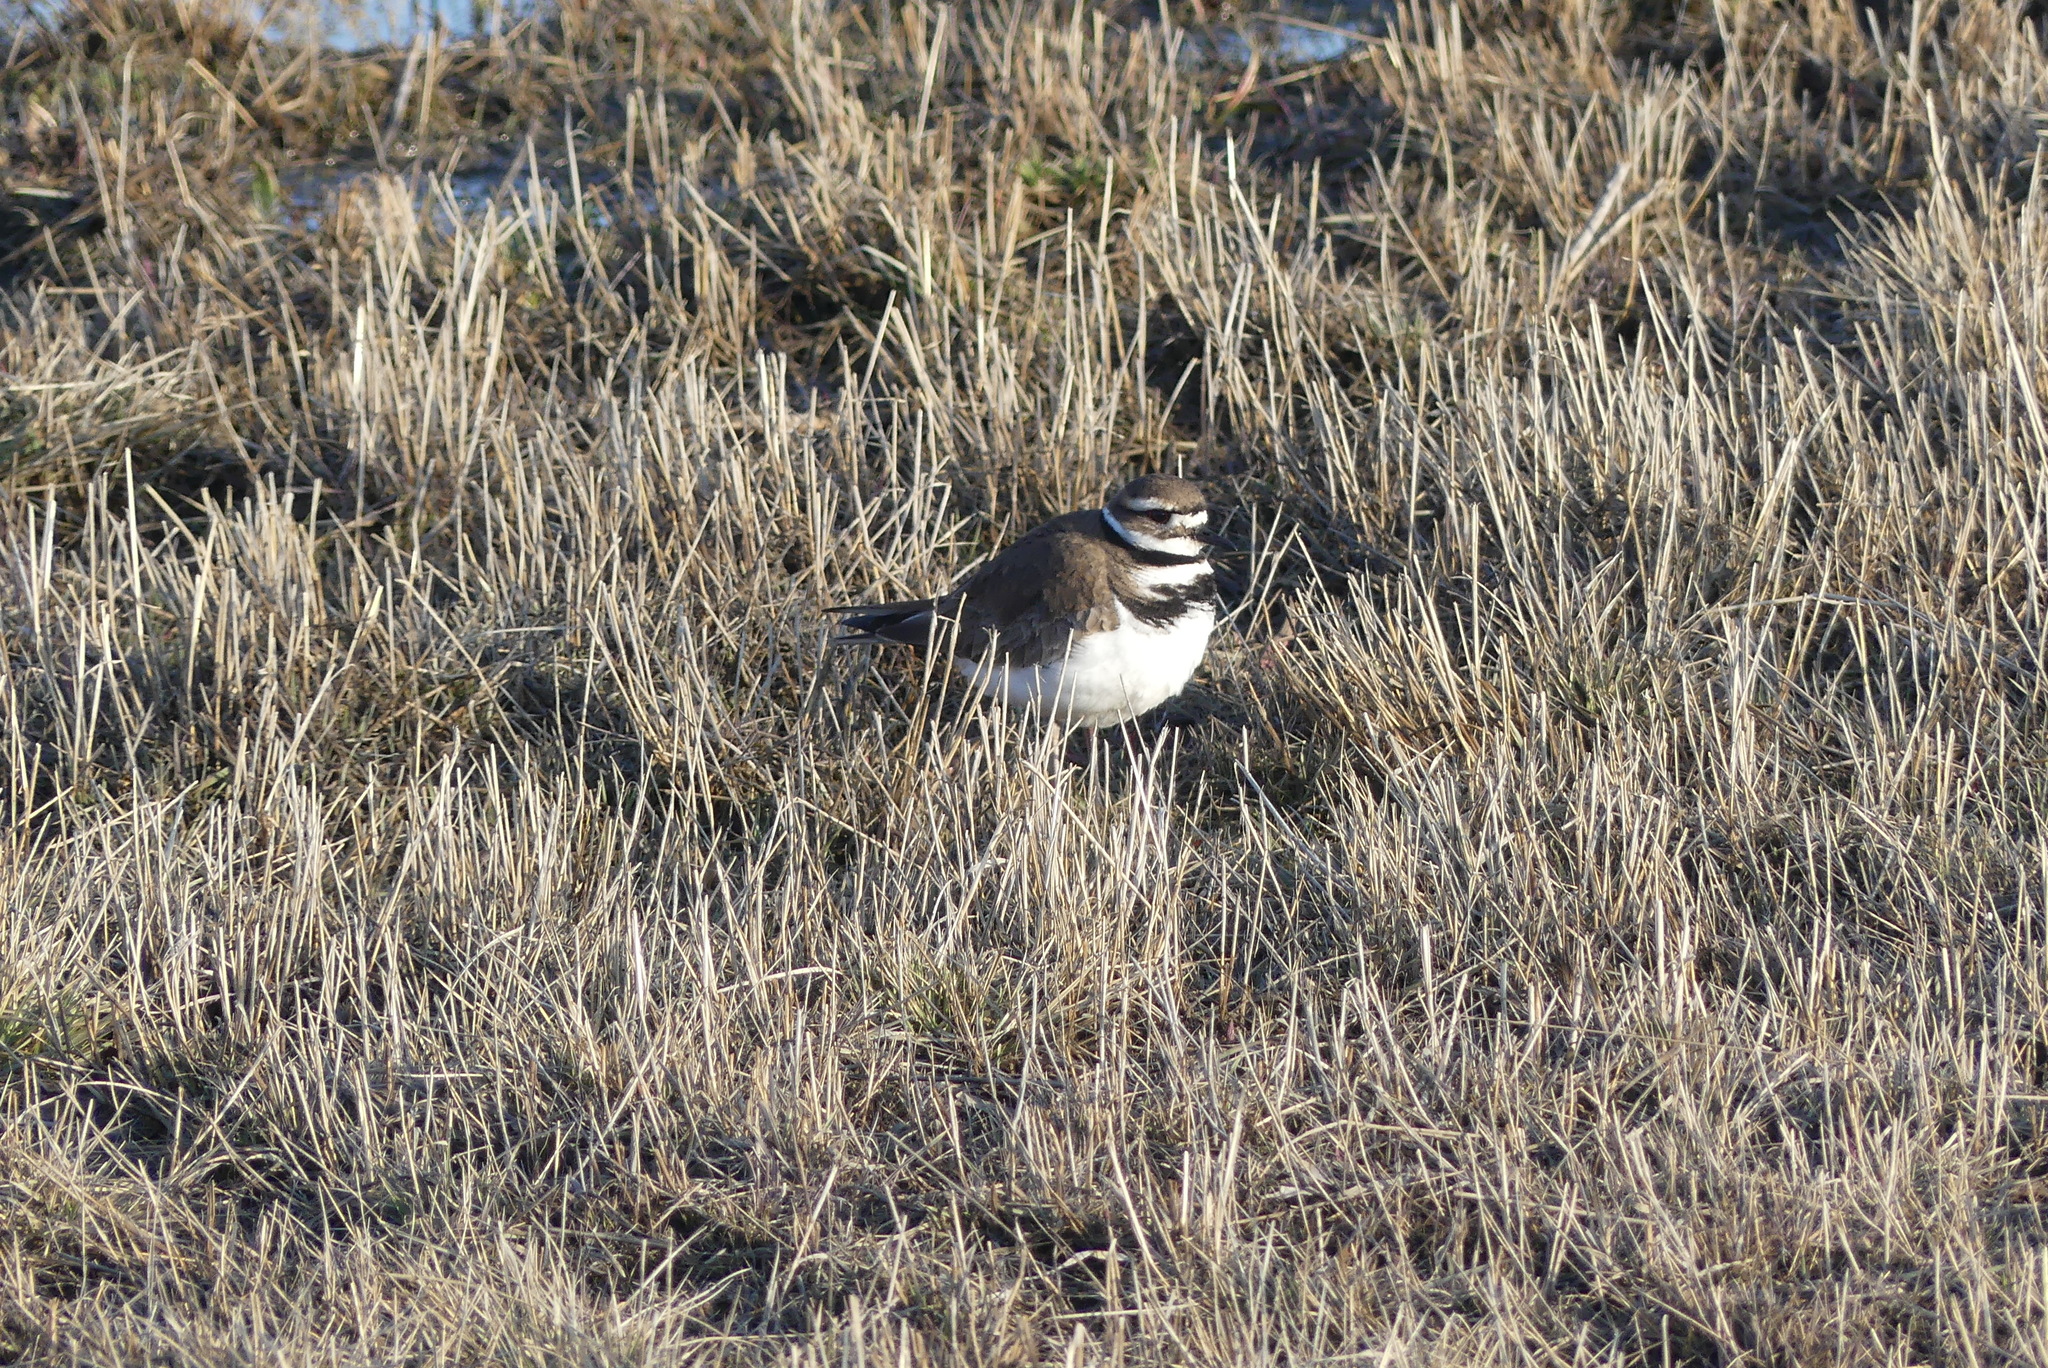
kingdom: Animalia
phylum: Chordata
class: Aves
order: Charadriiformes
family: Charadriidae
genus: Charadrius
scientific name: Charadrius vociferus
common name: Killdeer
